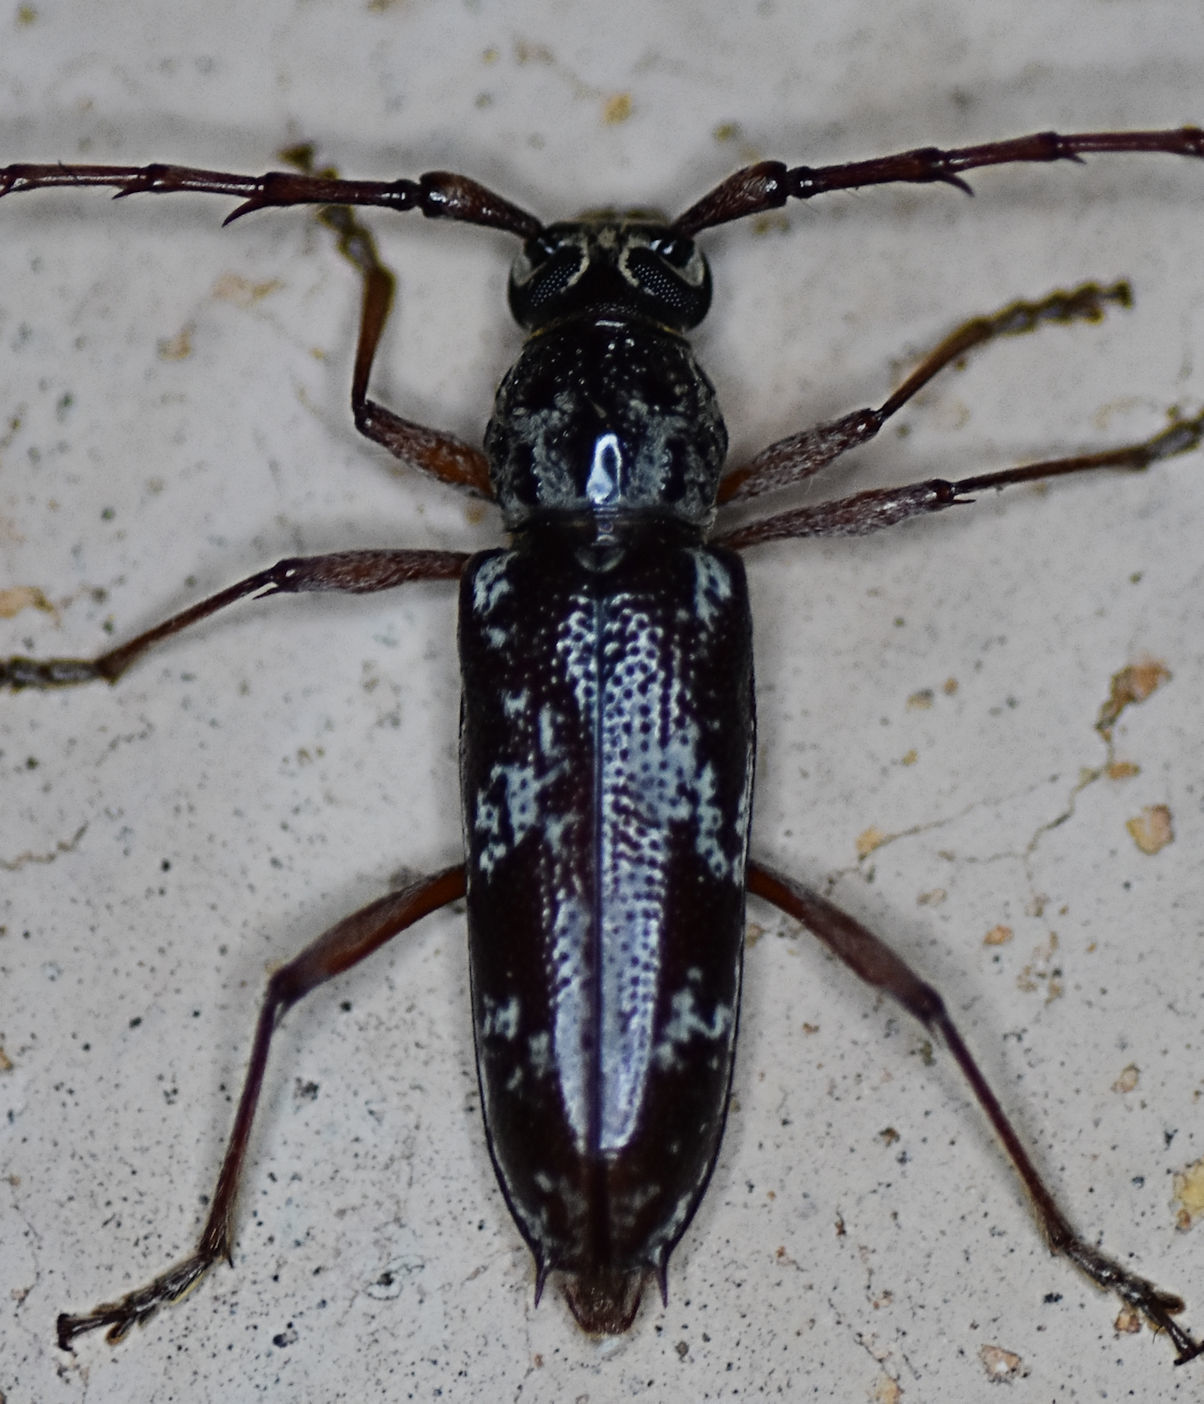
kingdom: Animalia
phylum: Arthropoda
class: Insecta
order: Coleoptera
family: Cerambycidae
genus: Elaphidion
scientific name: Elaphidion irroratum
